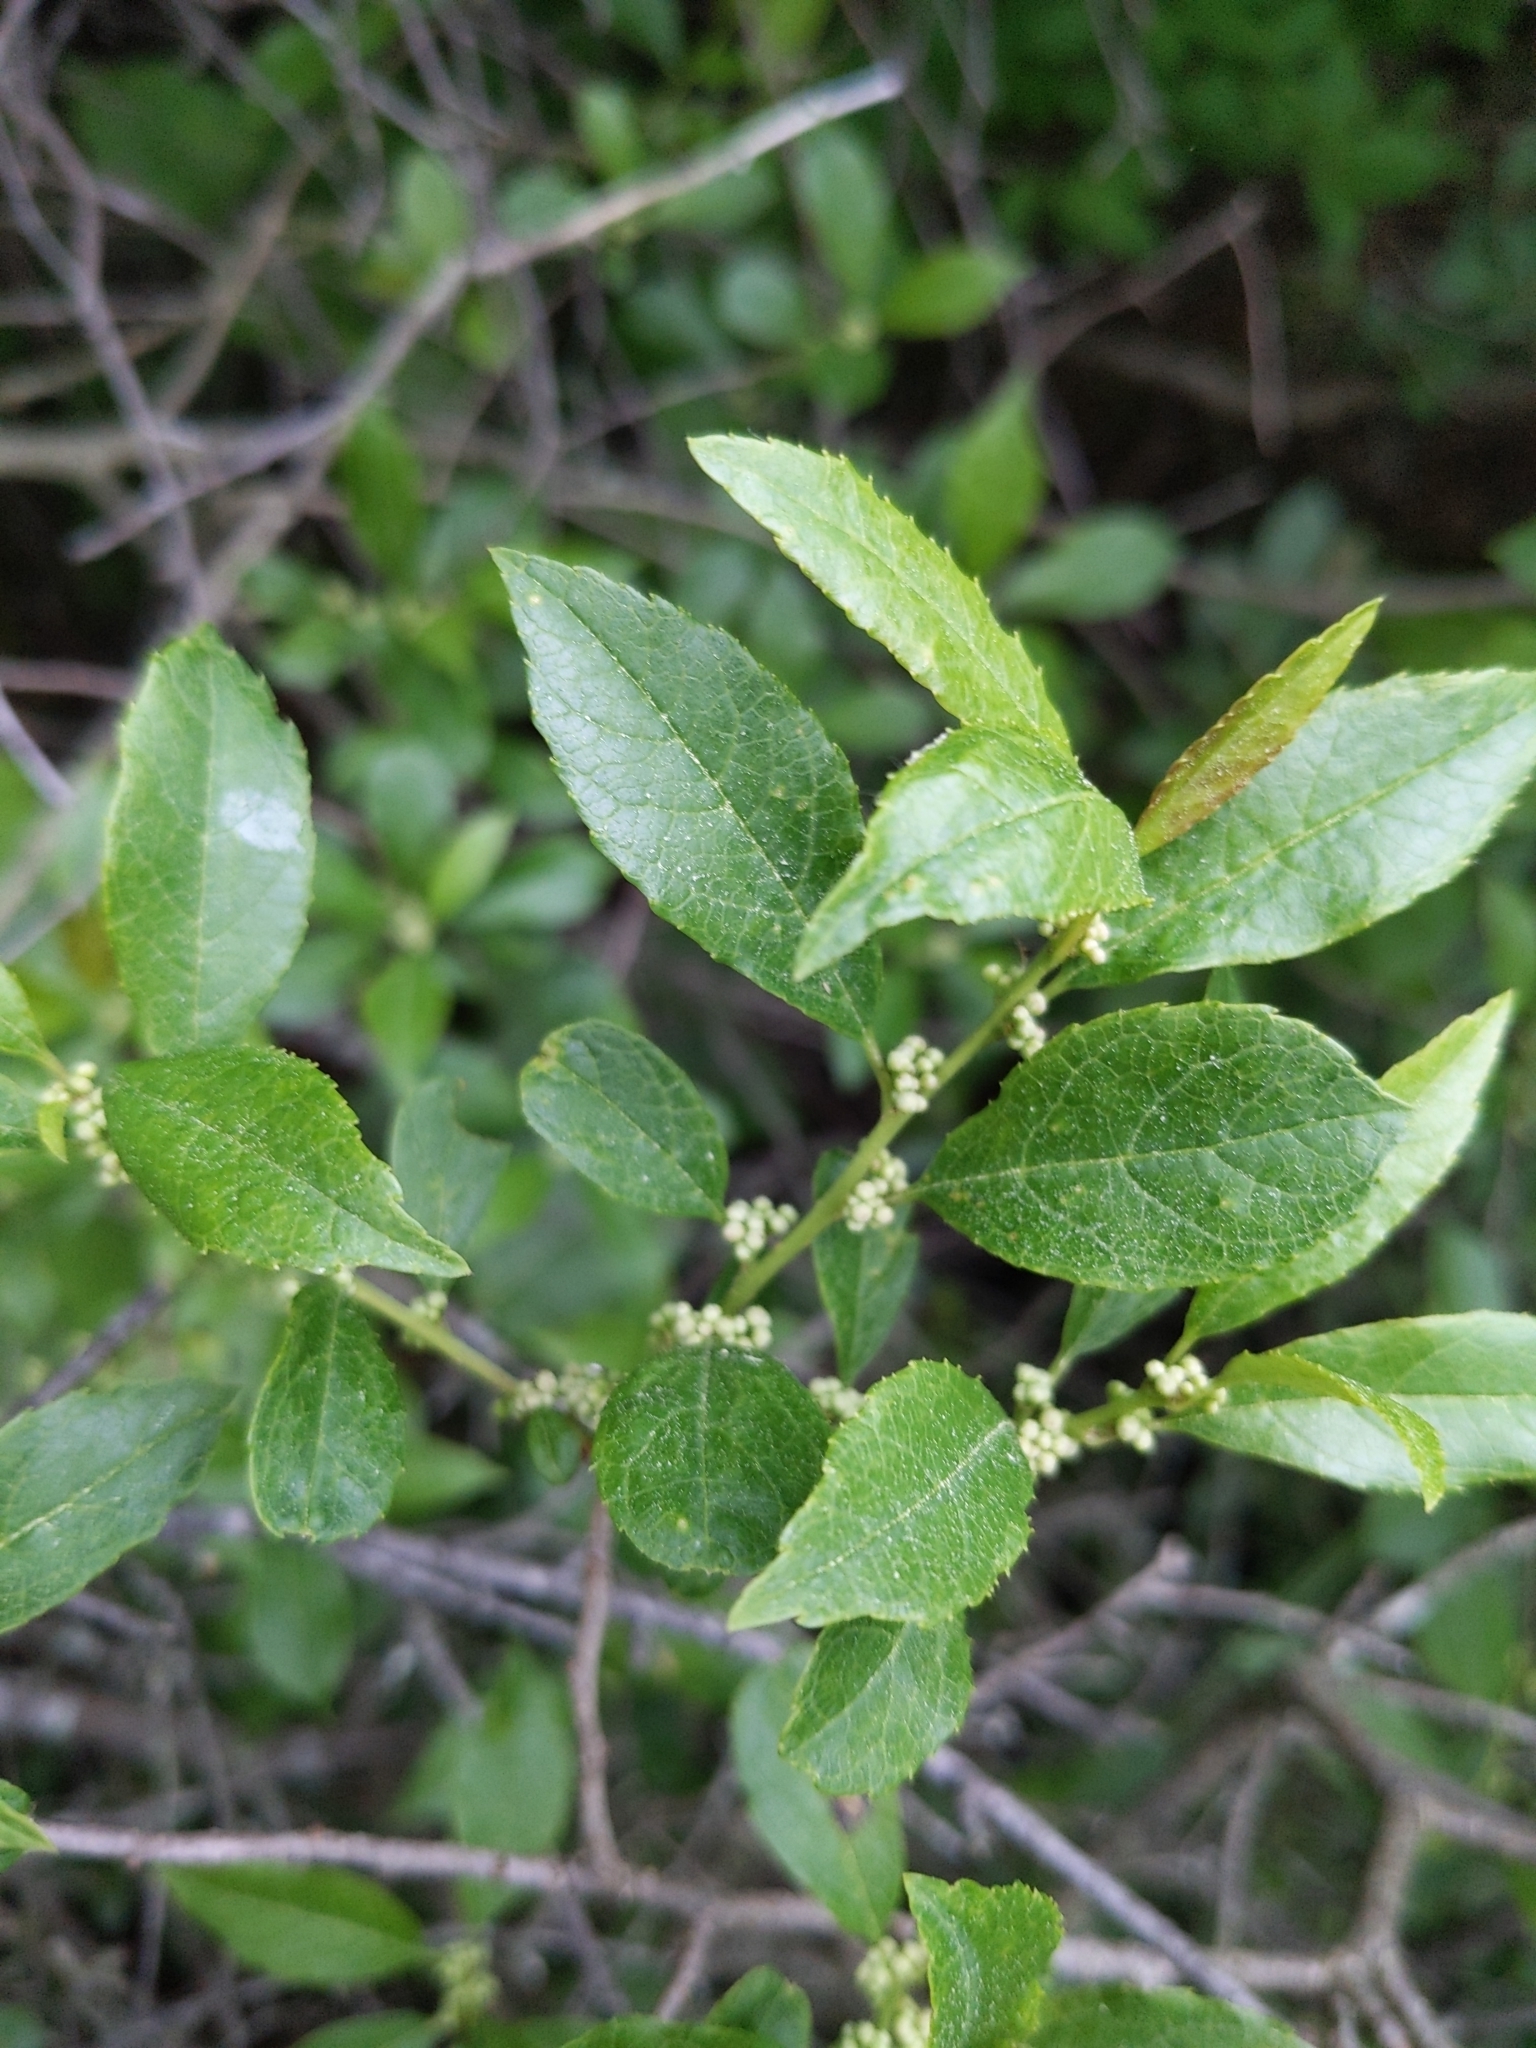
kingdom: Plantae
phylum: Tracheophyta
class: Magnoliopsida
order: Aquifoliales
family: Aquifoliaceae
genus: Ilex
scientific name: Ilex verticillata
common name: Virginia winterberry
